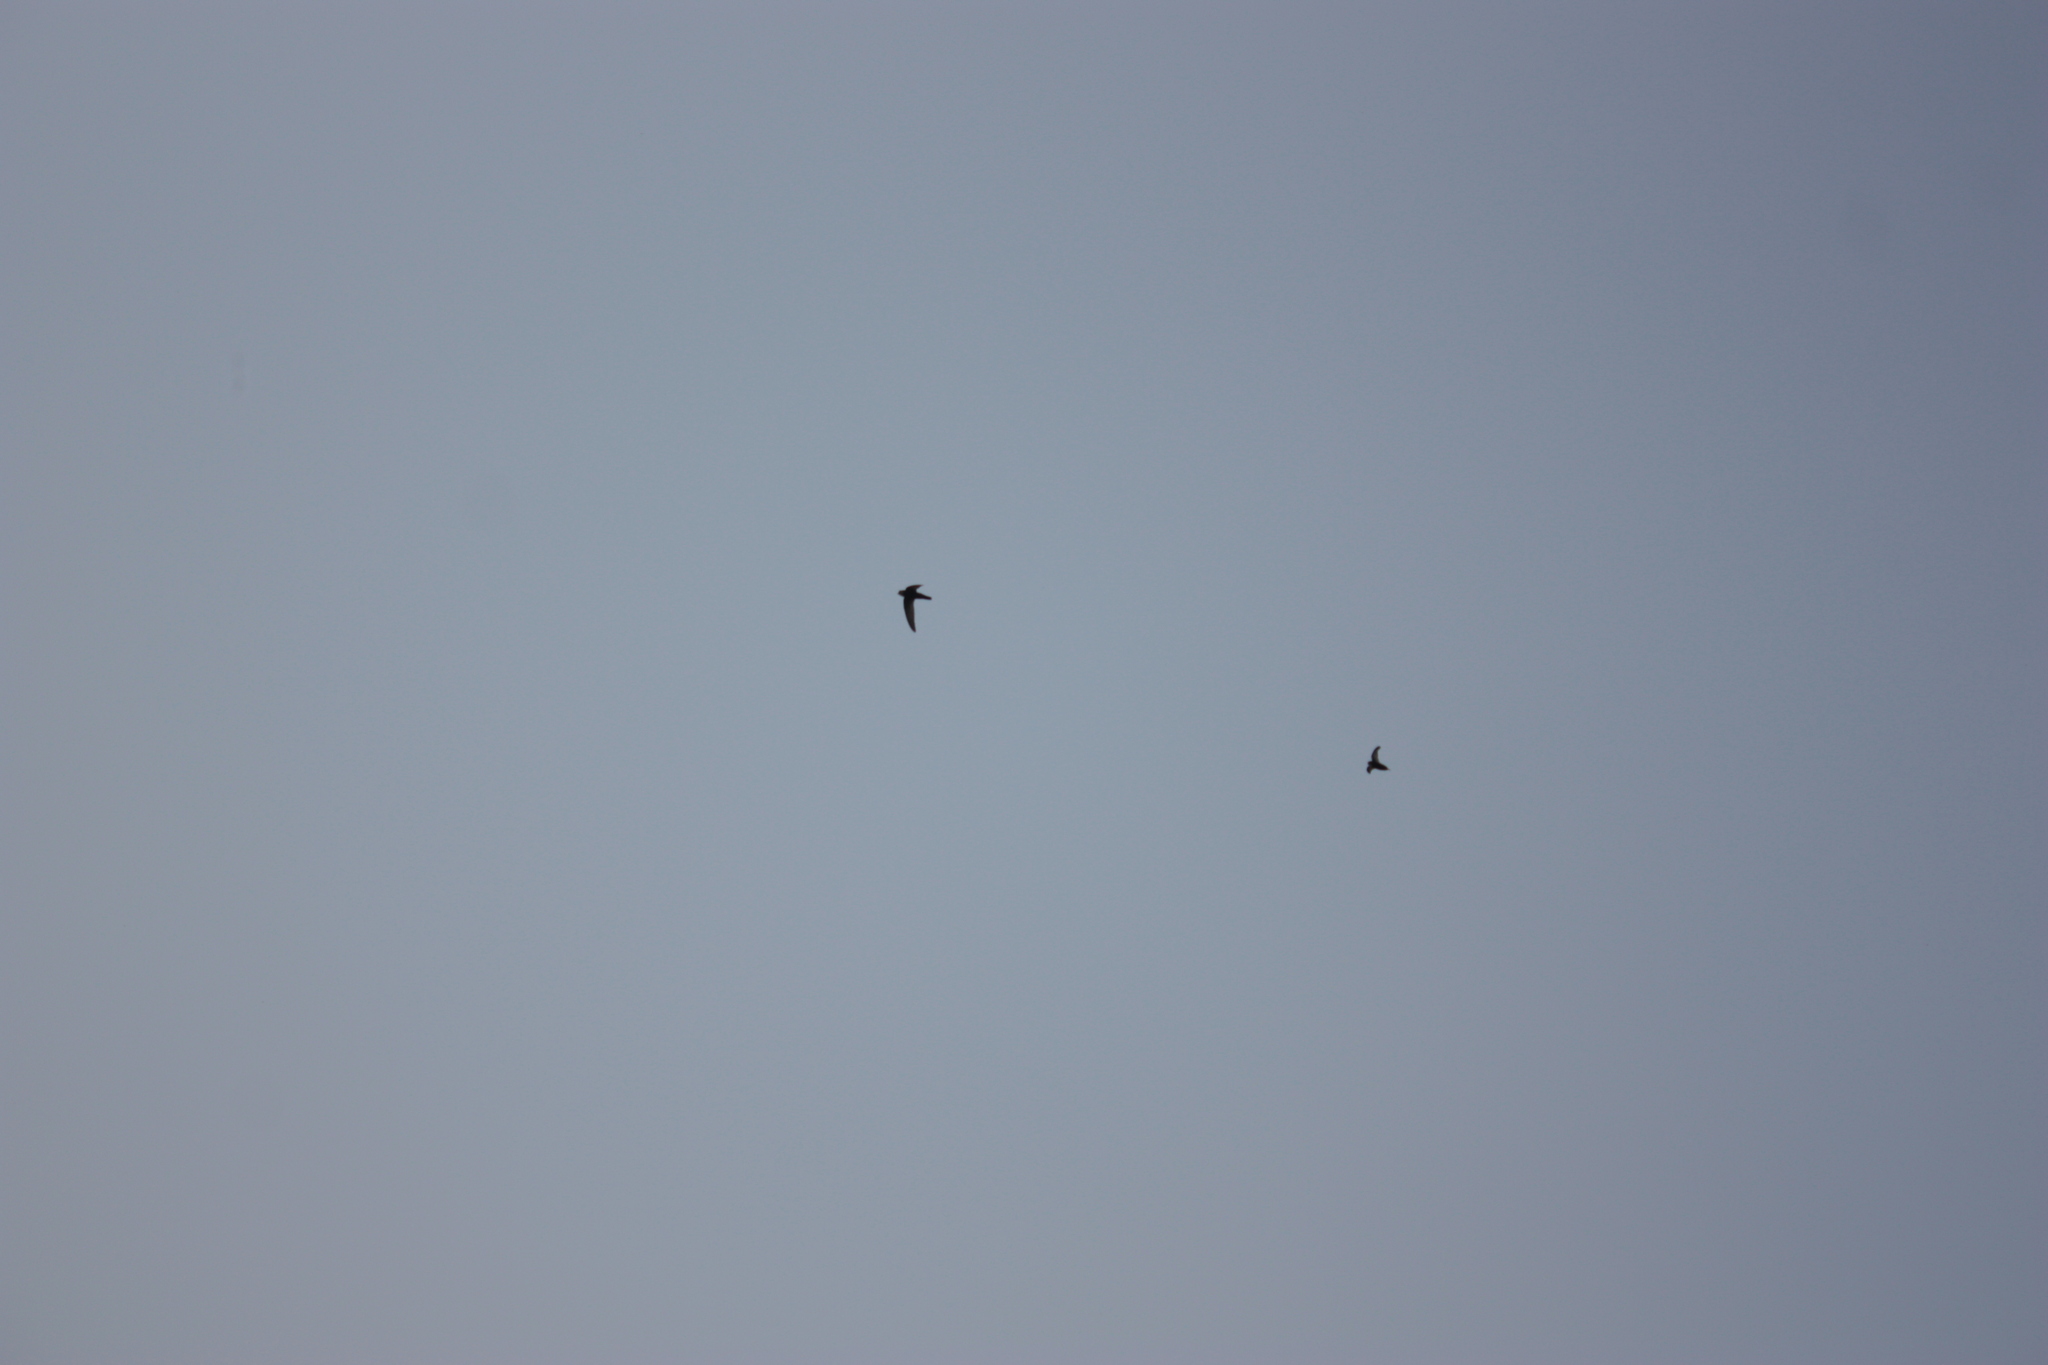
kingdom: Animalia
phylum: Chordata
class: Aves
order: Apodiformes
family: Apodidae
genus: Apus
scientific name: Apus nipalensis
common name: House swift
